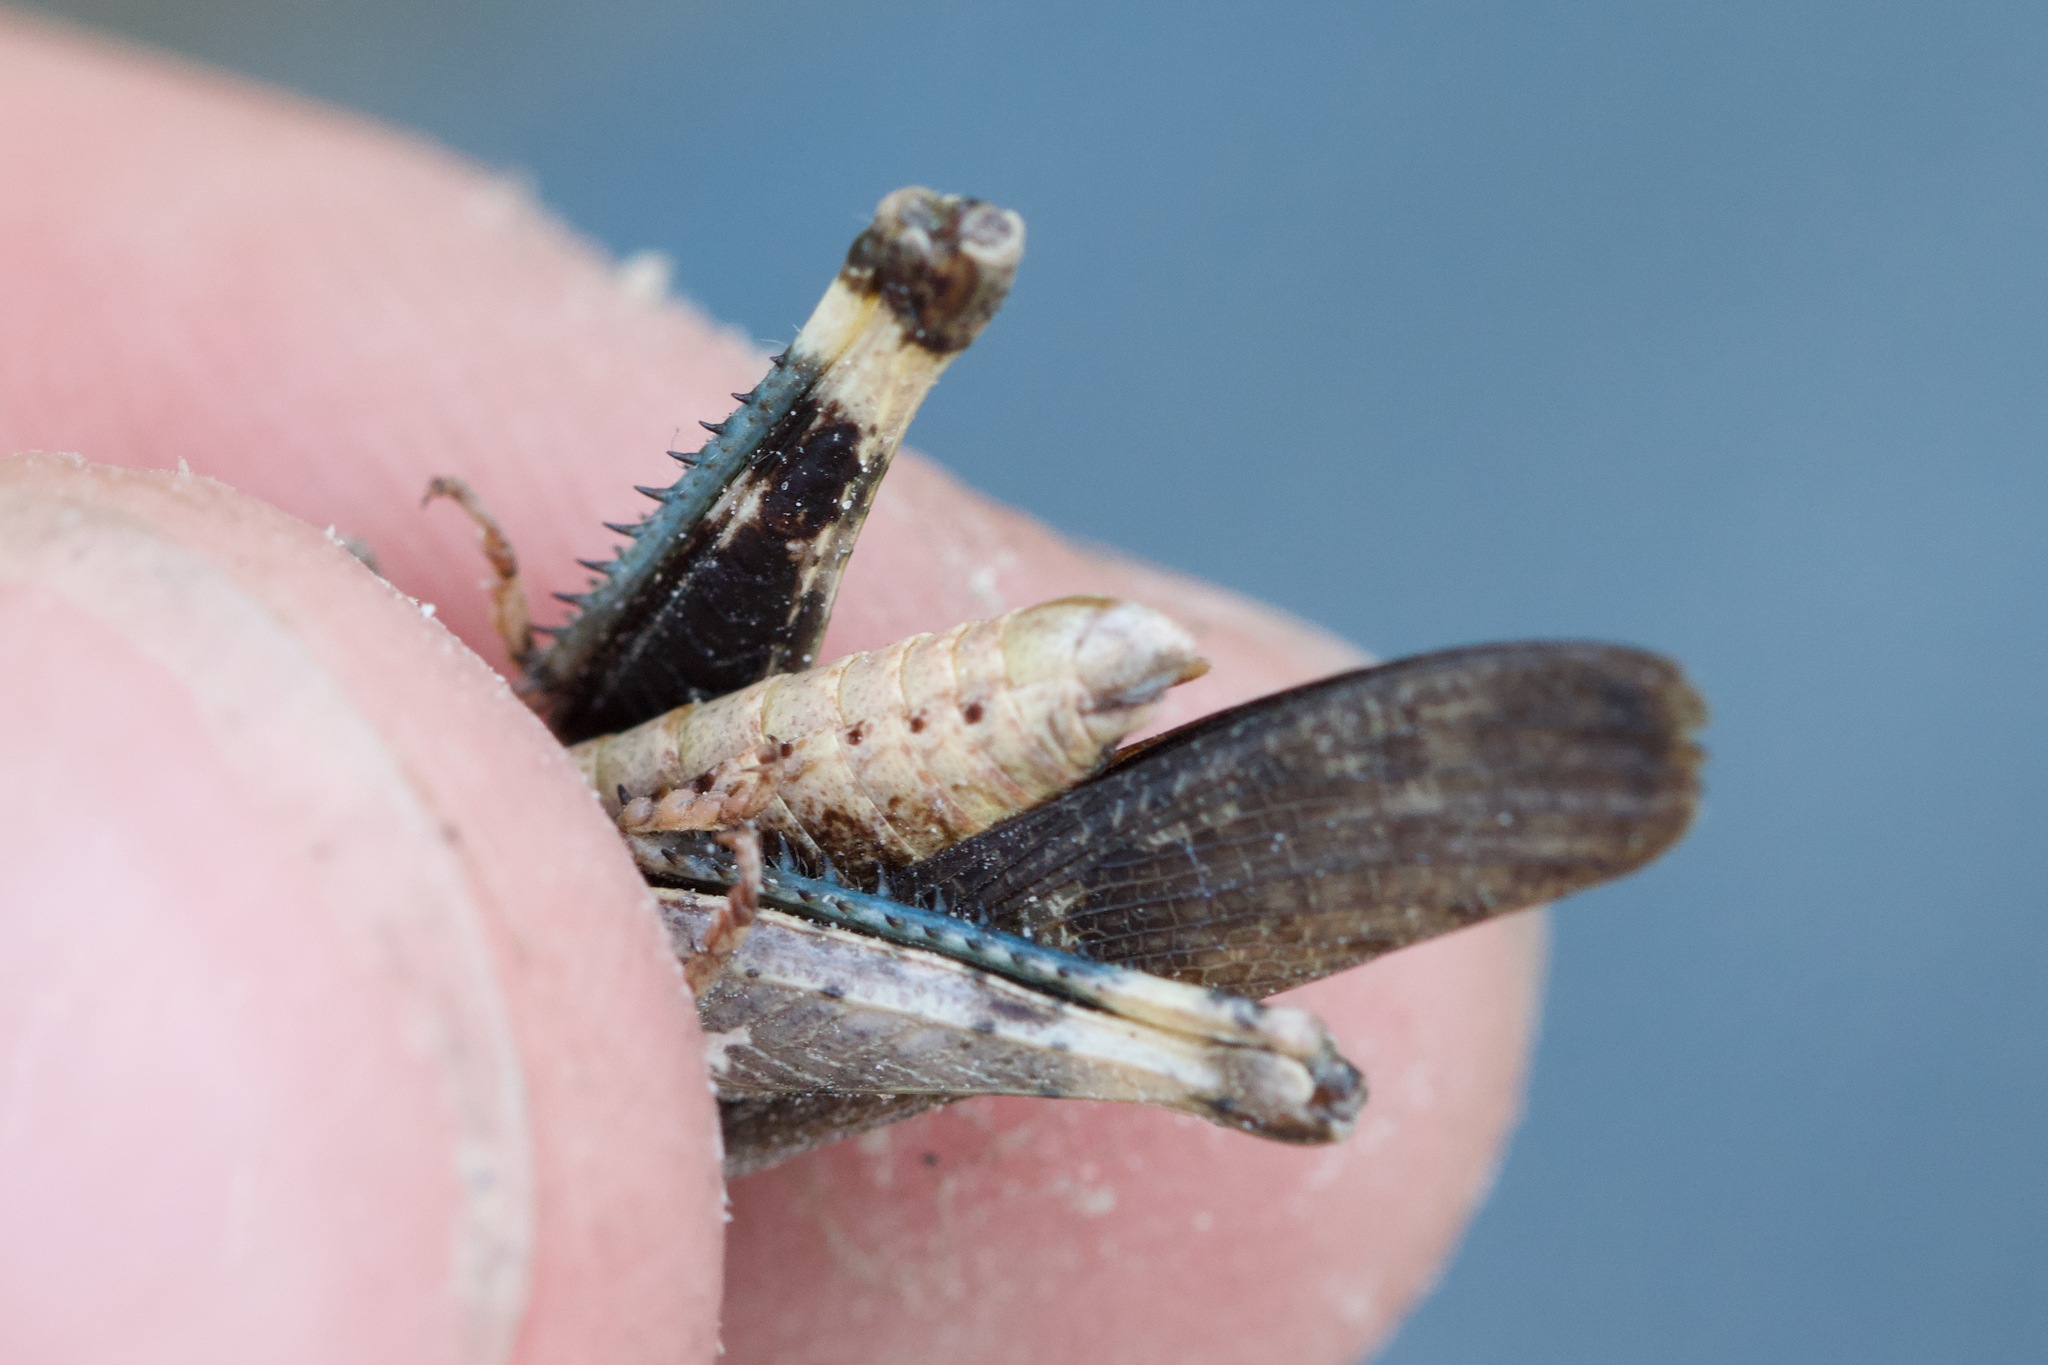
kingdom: Animalia
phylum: Arthropoda
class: Insecta
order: Orthoptera
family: Acrididae
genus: Chortophaga
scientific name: Chortophaga viridifasciata
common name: Green-striped grasshopper
